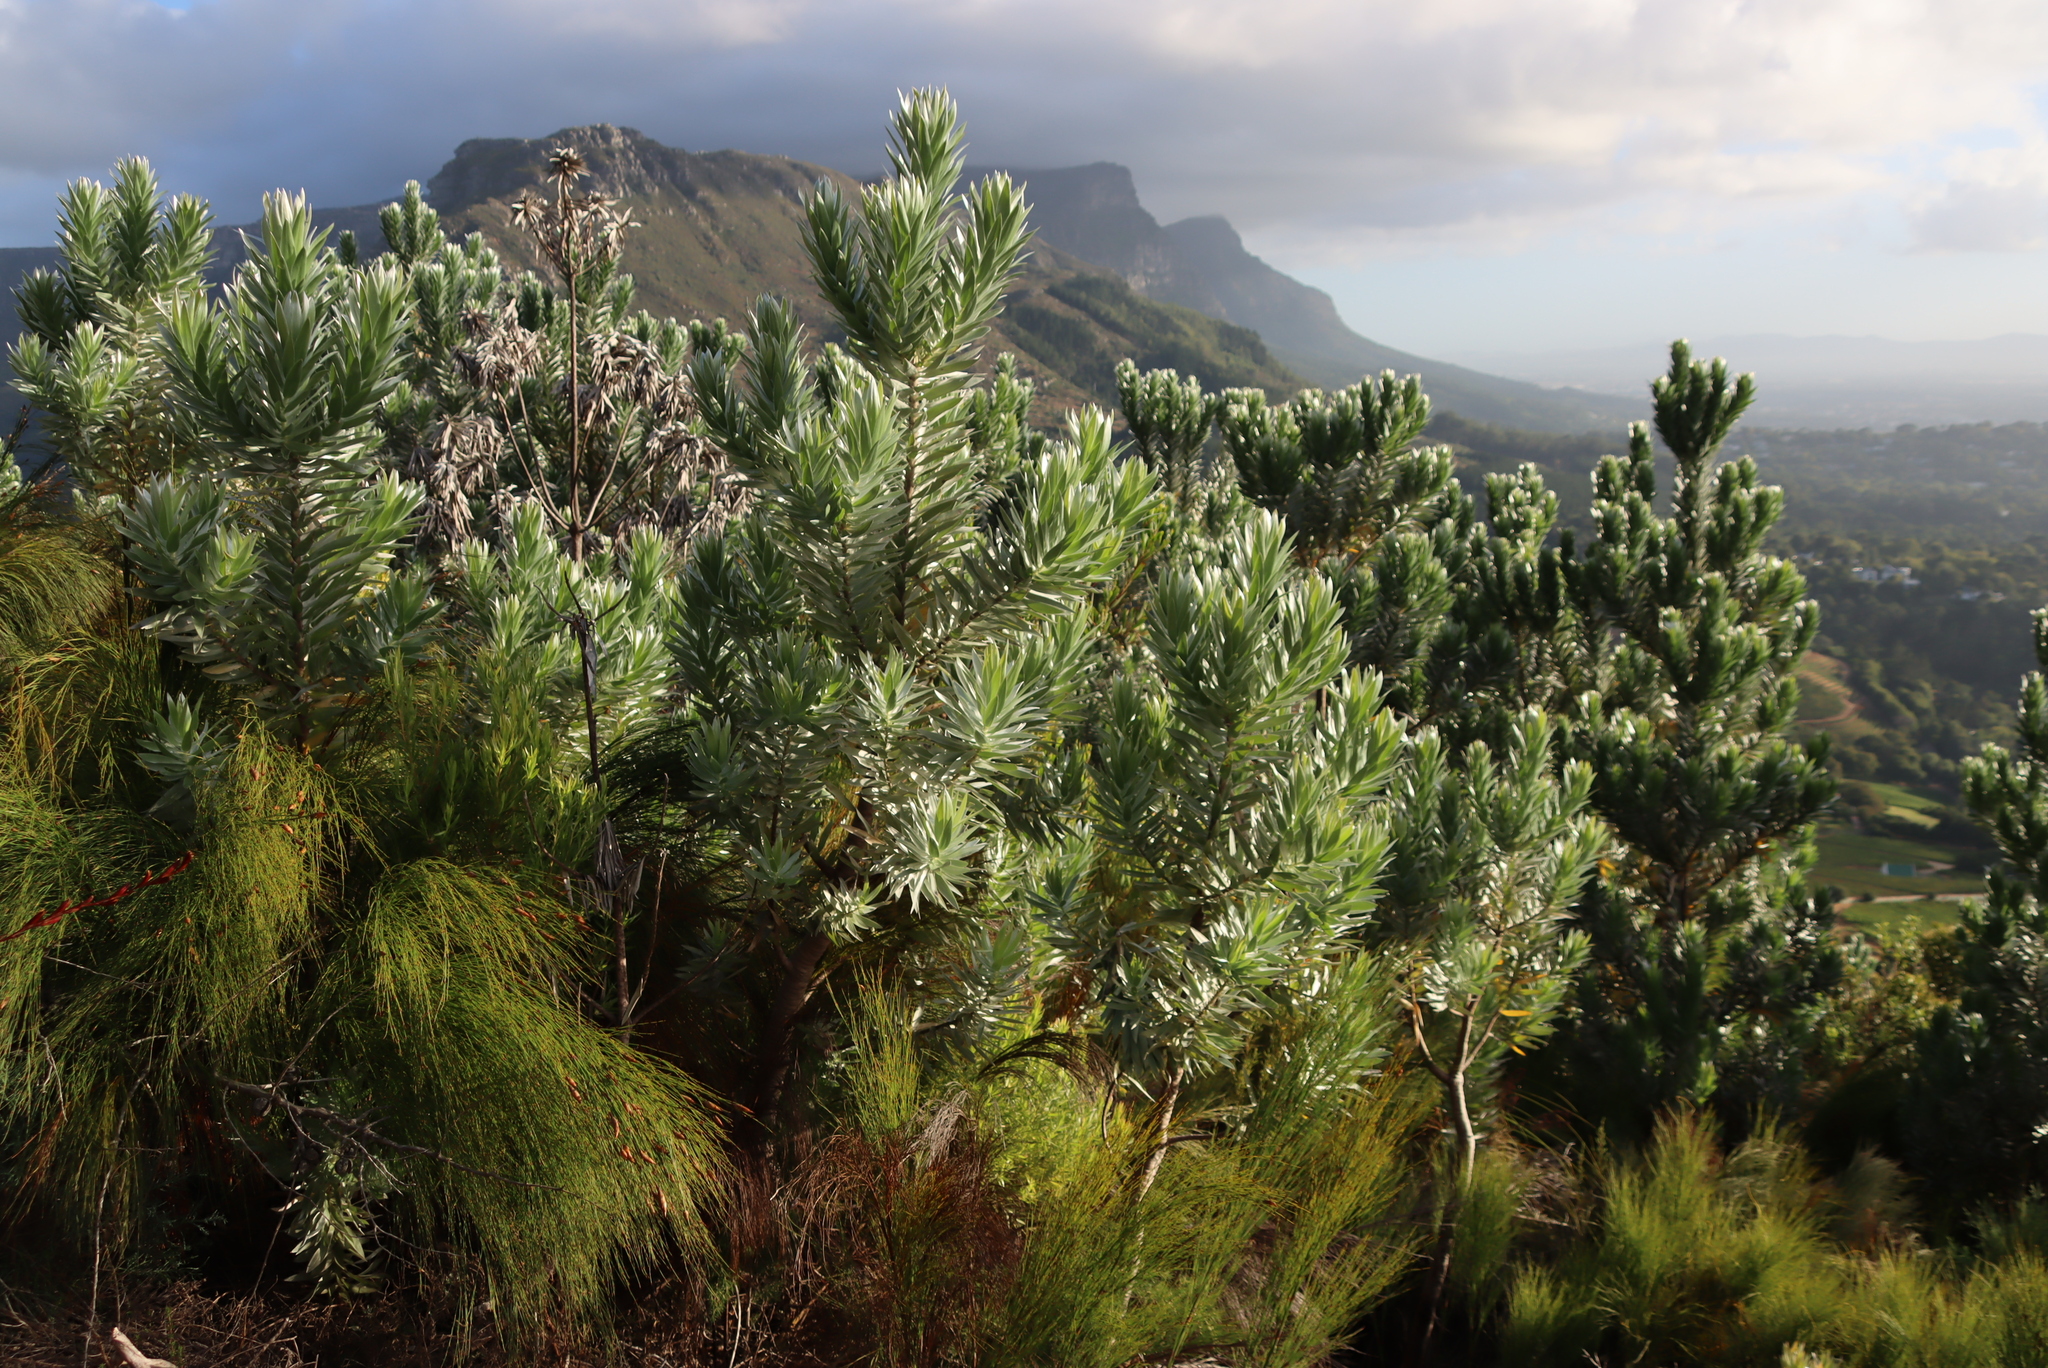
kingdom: Plantae
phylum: Tracheophyta
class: Magnoliopsida
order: Proteales
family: Proteaceae
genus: Leucadendron
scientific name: Leucadendron argenteum
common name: Cape silver tree
